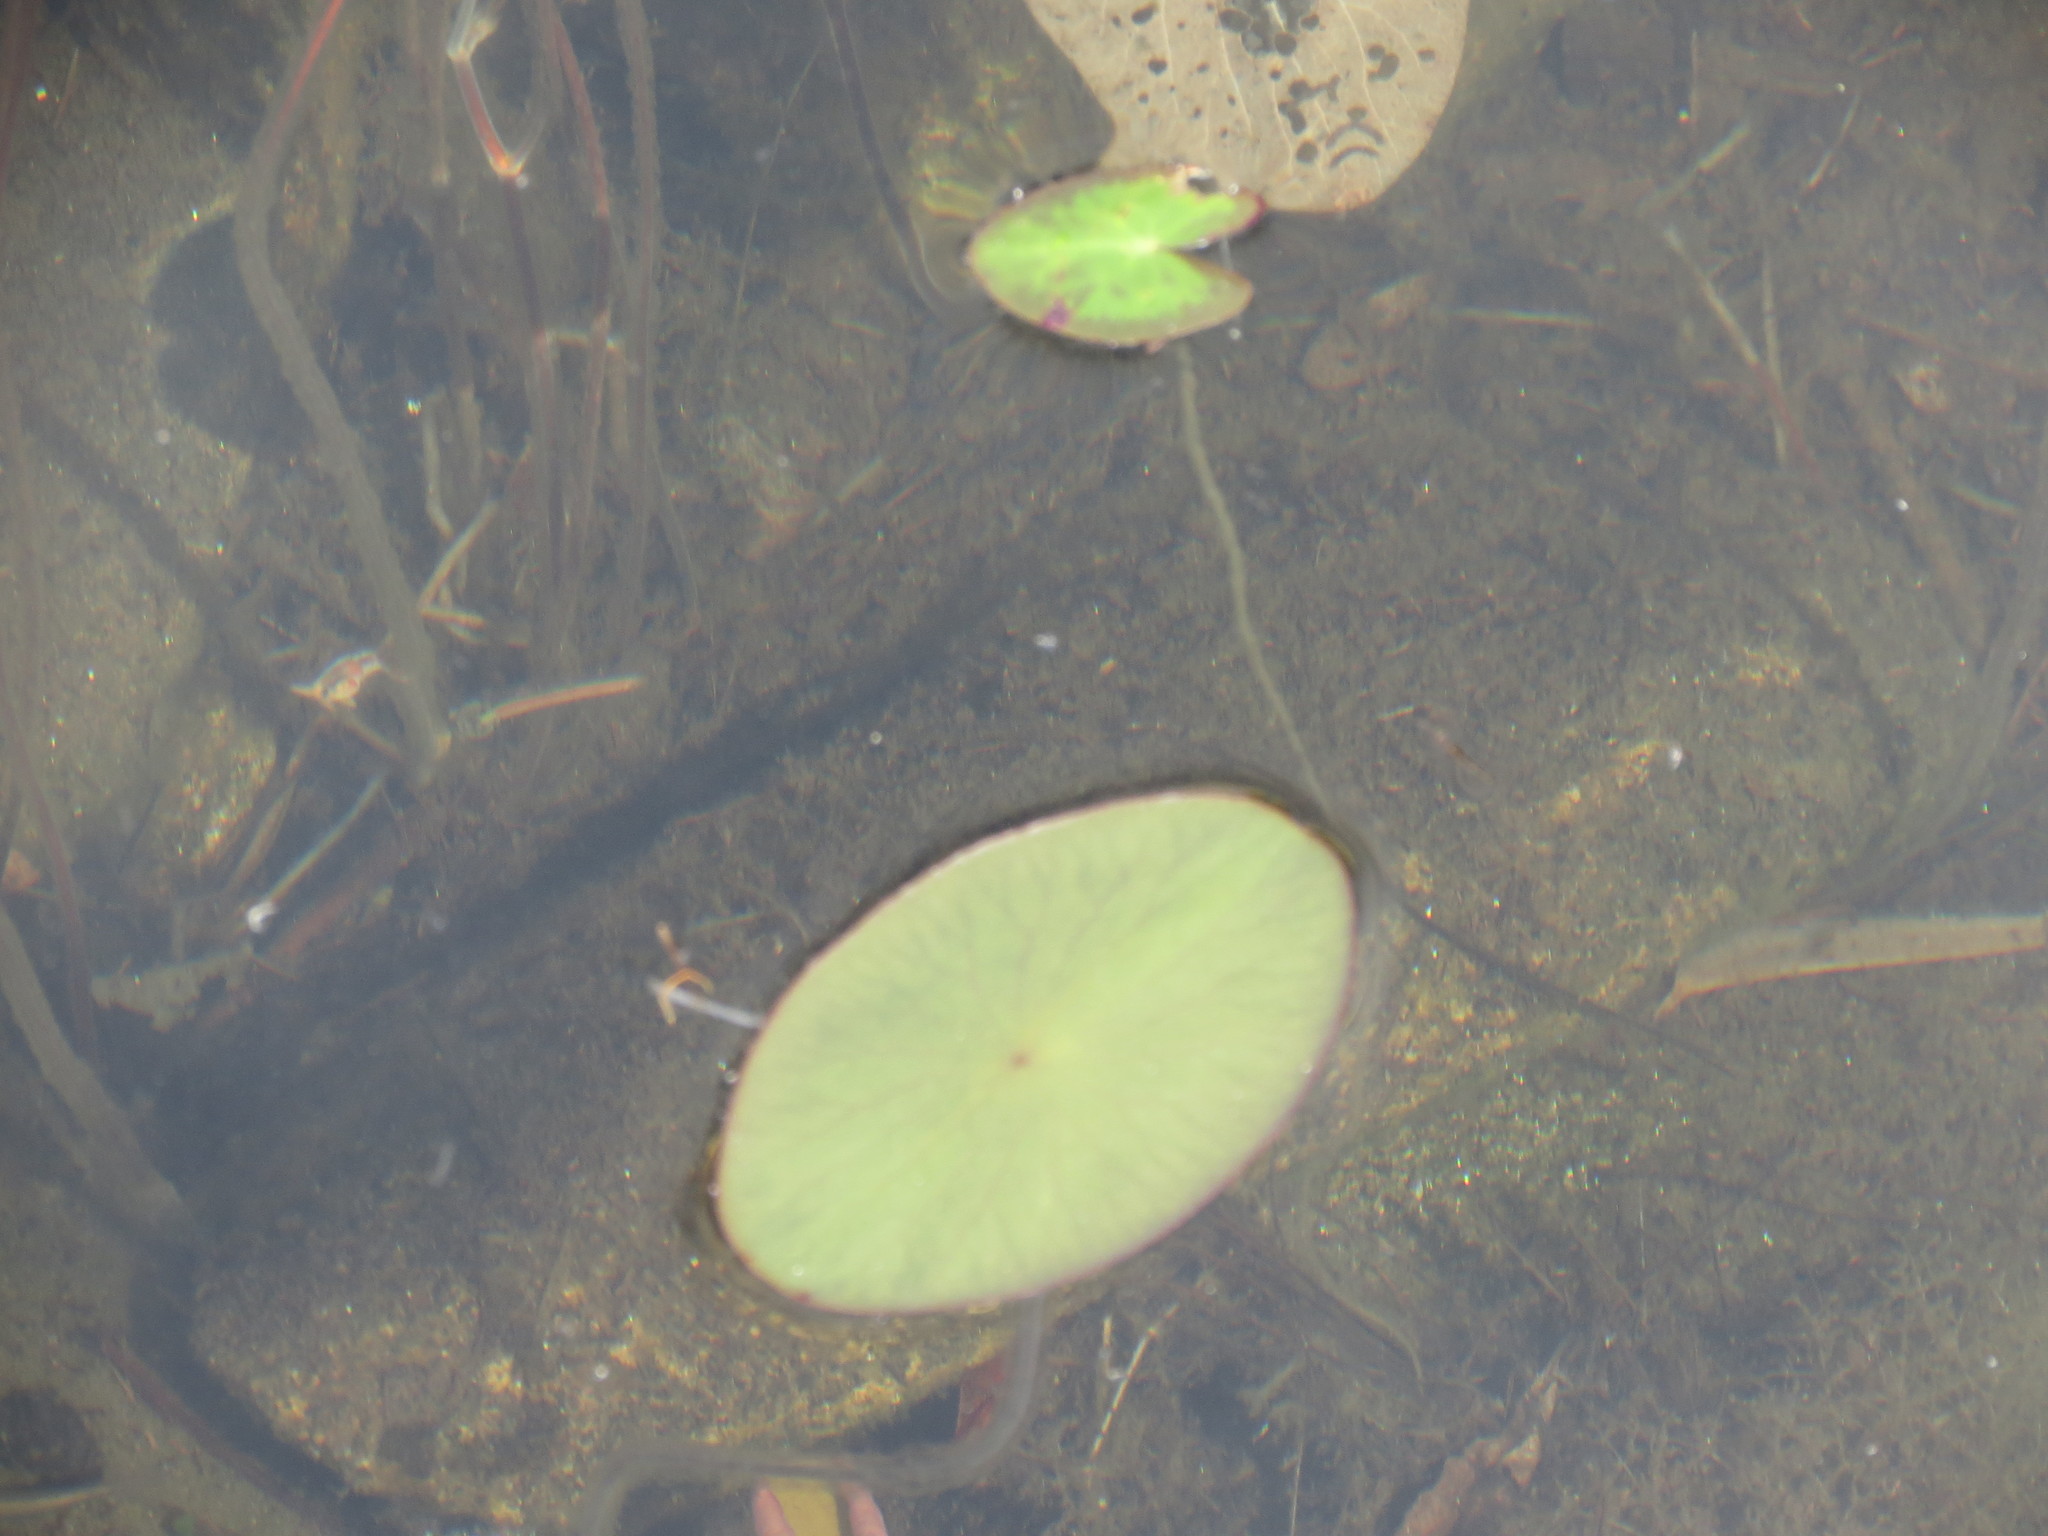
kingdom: Plantae
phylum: Tracheophyta
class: Magnoliopsida
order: Asterales
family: Menyanthaceae
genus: Nymphoides
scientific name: Nymphoides cordata
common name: Eight-angled floatingheart
